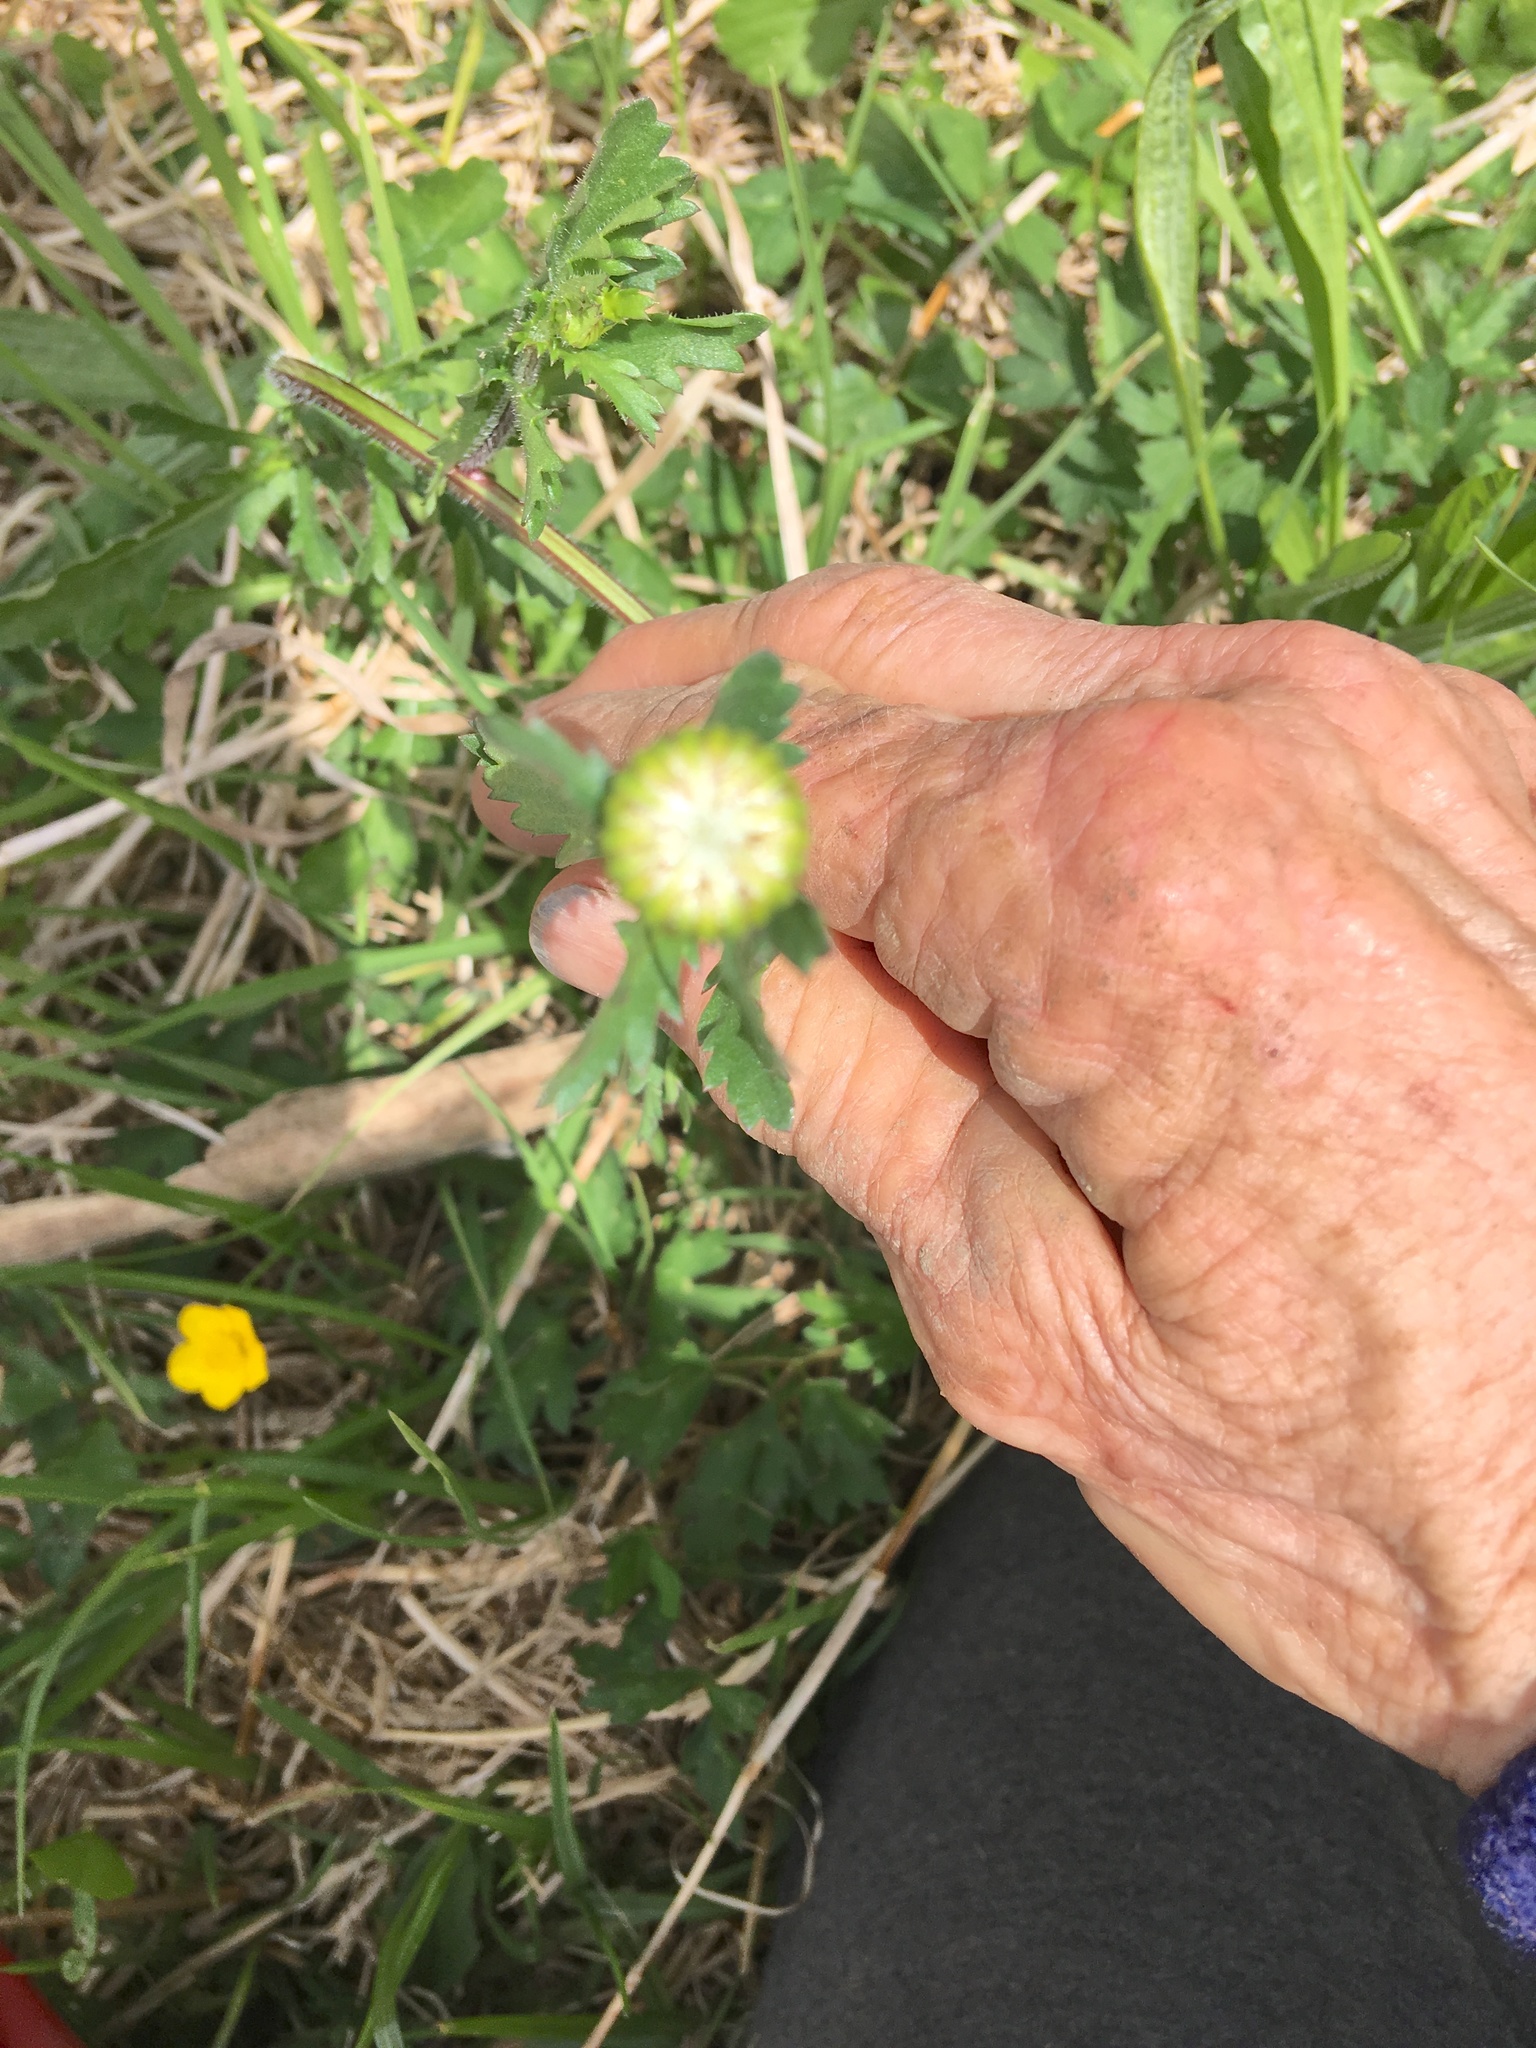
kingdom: Plantae
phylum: Tracheophyta
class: Magnoliopsida
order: Asterales
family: Asteraceae
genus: Leucanthemum
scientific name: Leucanthemum vulgare
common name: Oxeye daisy
